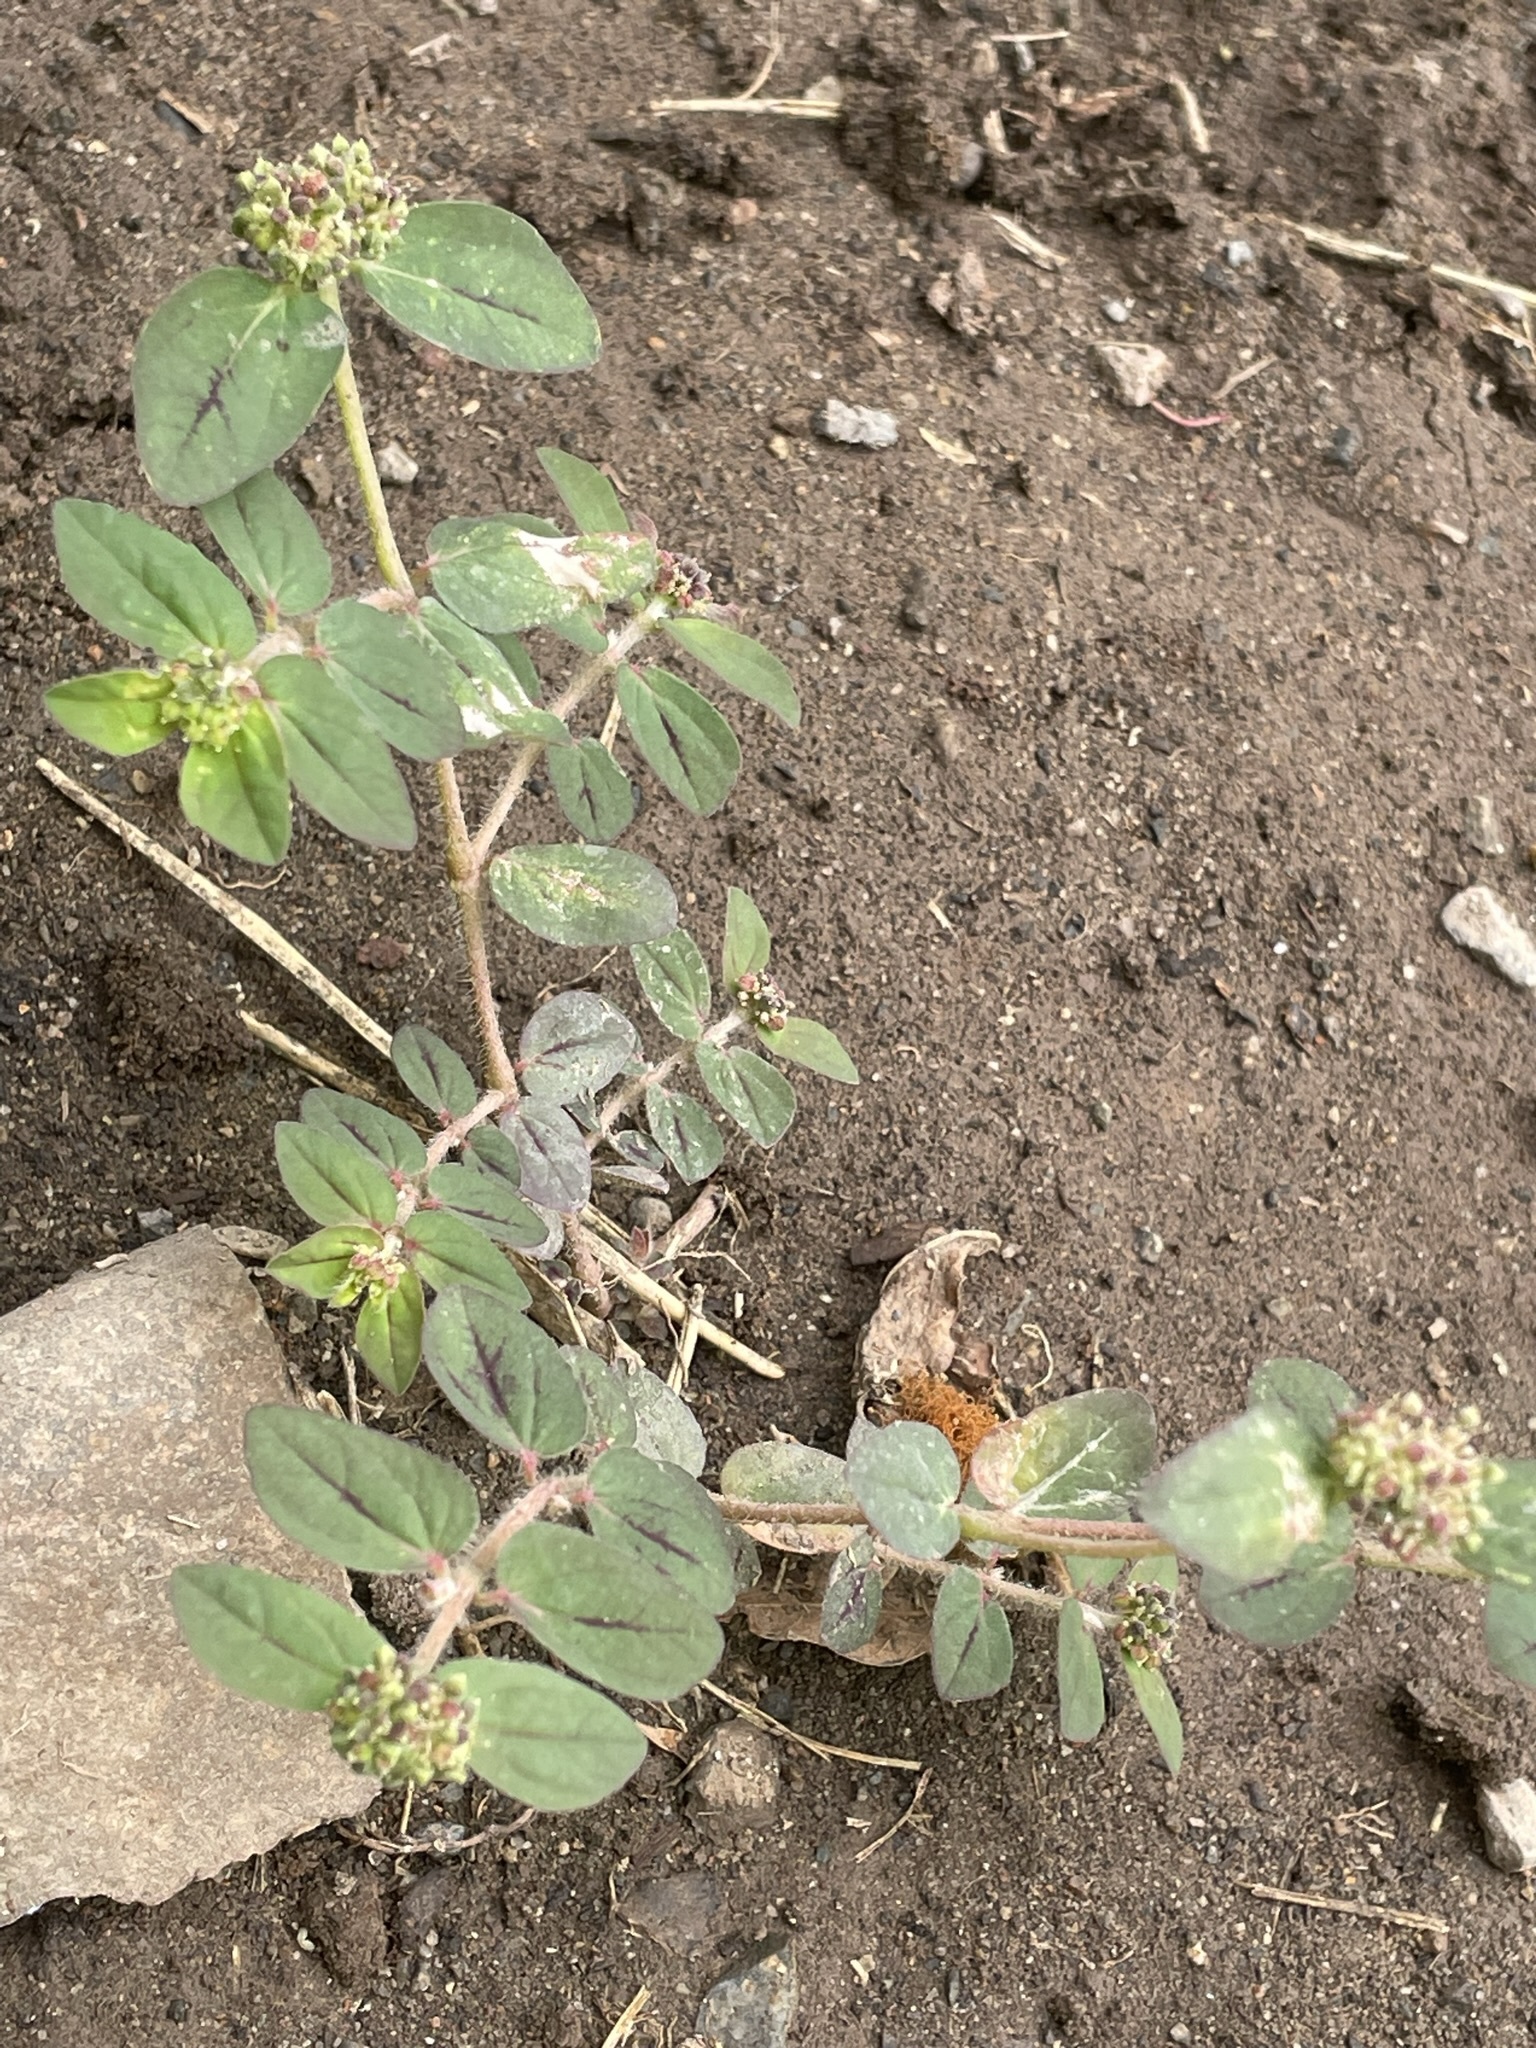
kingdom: Plantae
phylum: Tracheophyta
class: Magnoliopsida
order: Malpighiales
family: Euphorbiaceae
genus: Euphorbia
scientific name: Euphorbia ophthalmica
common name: Florida hammock sandmat
